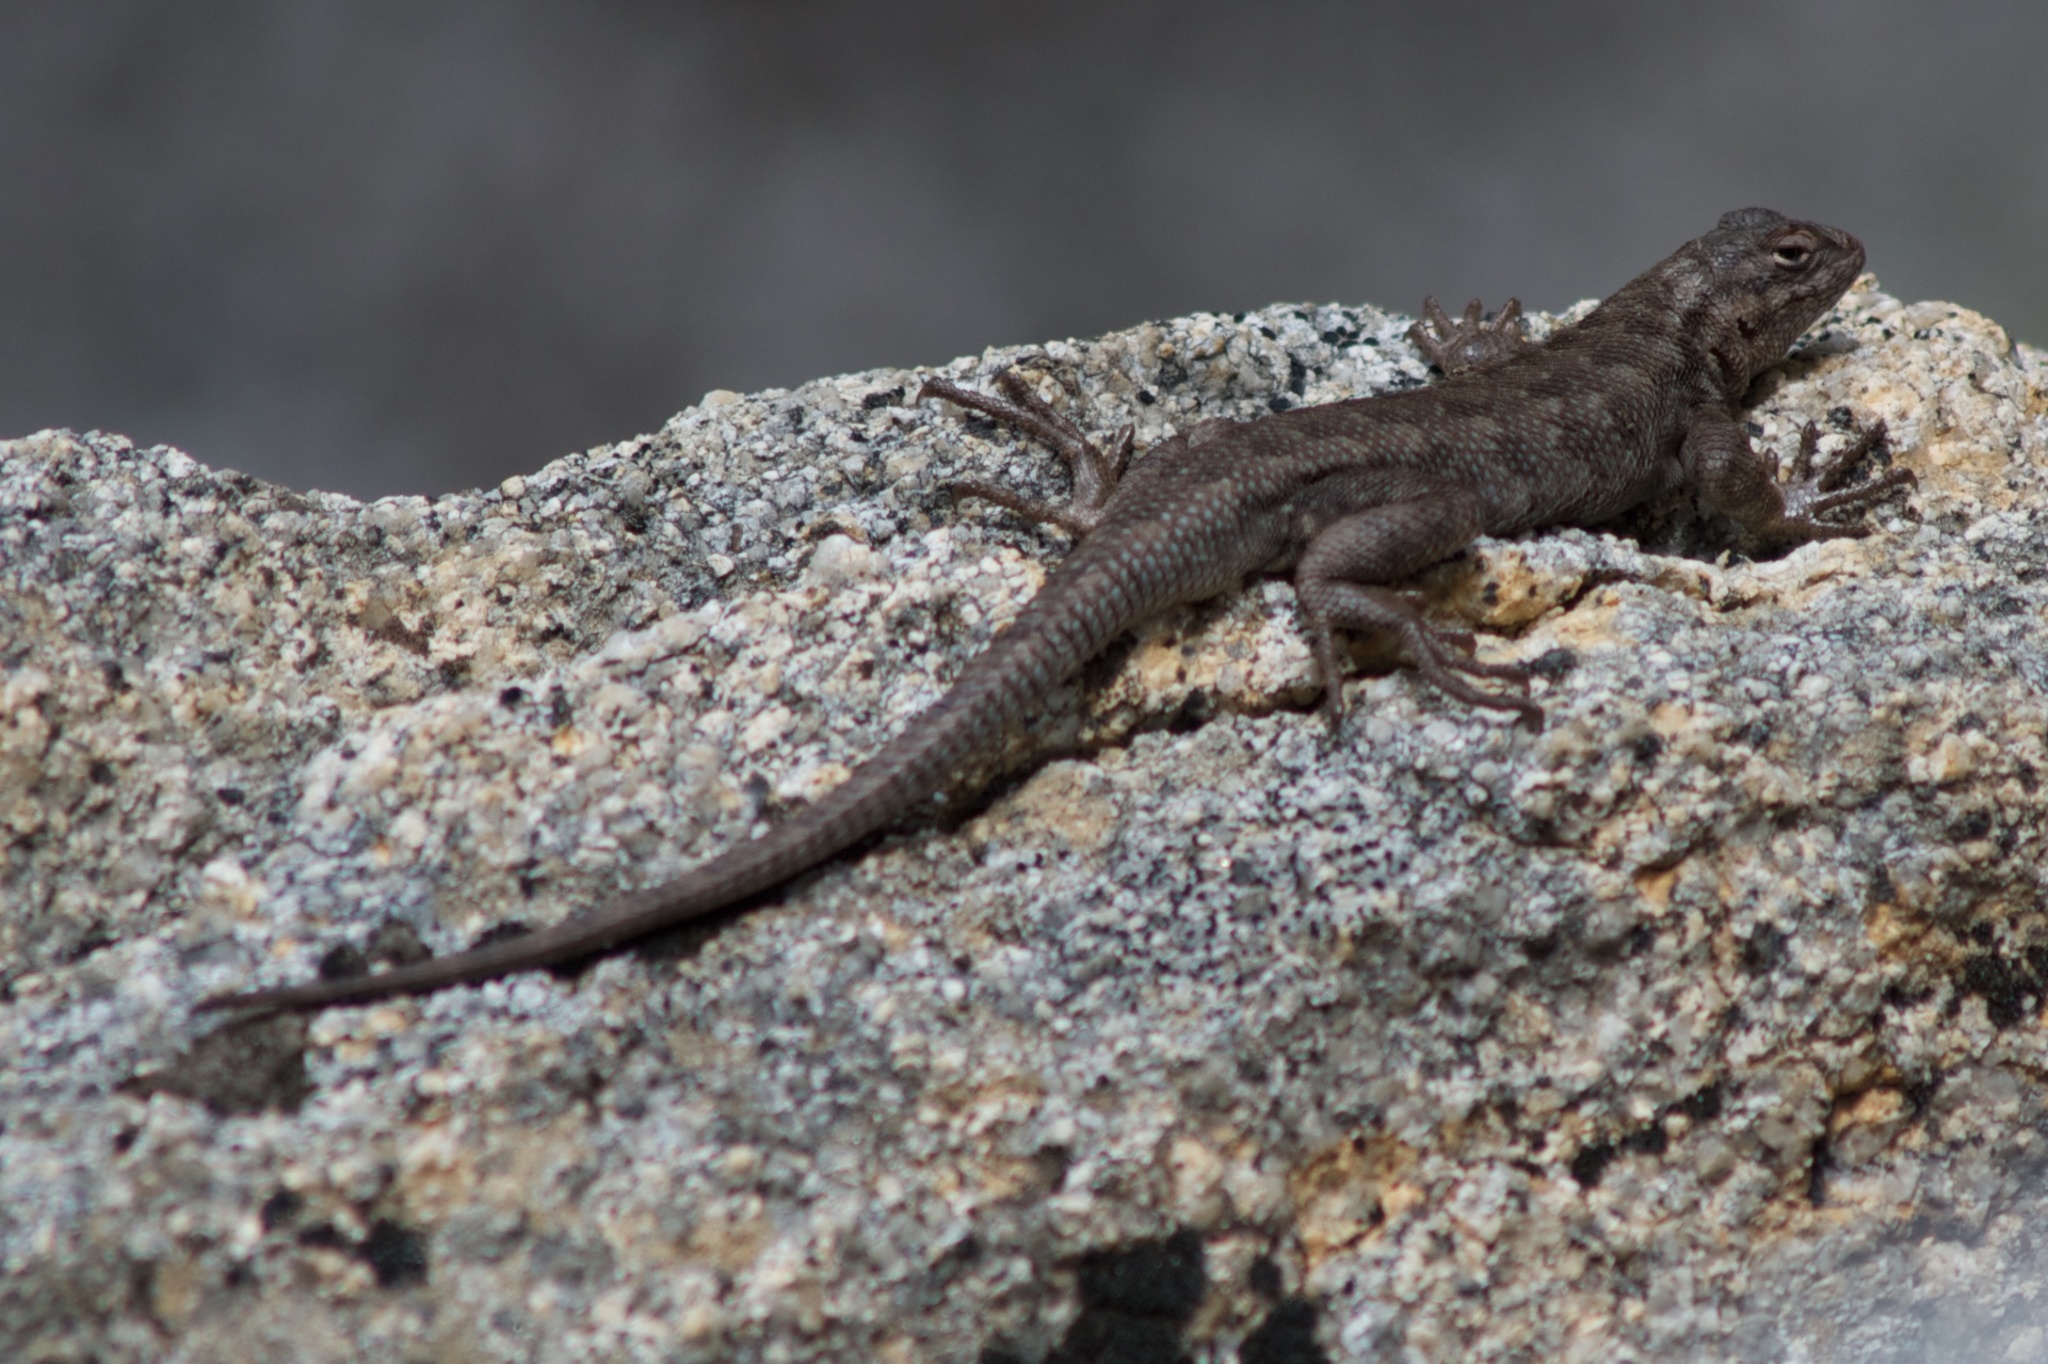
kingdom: Animalia
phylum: Chordata
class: Squamata
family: Phrynosomatidae
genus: Sceloporus
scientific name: Sceloporus graciosus
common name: Sagebrush lizard
